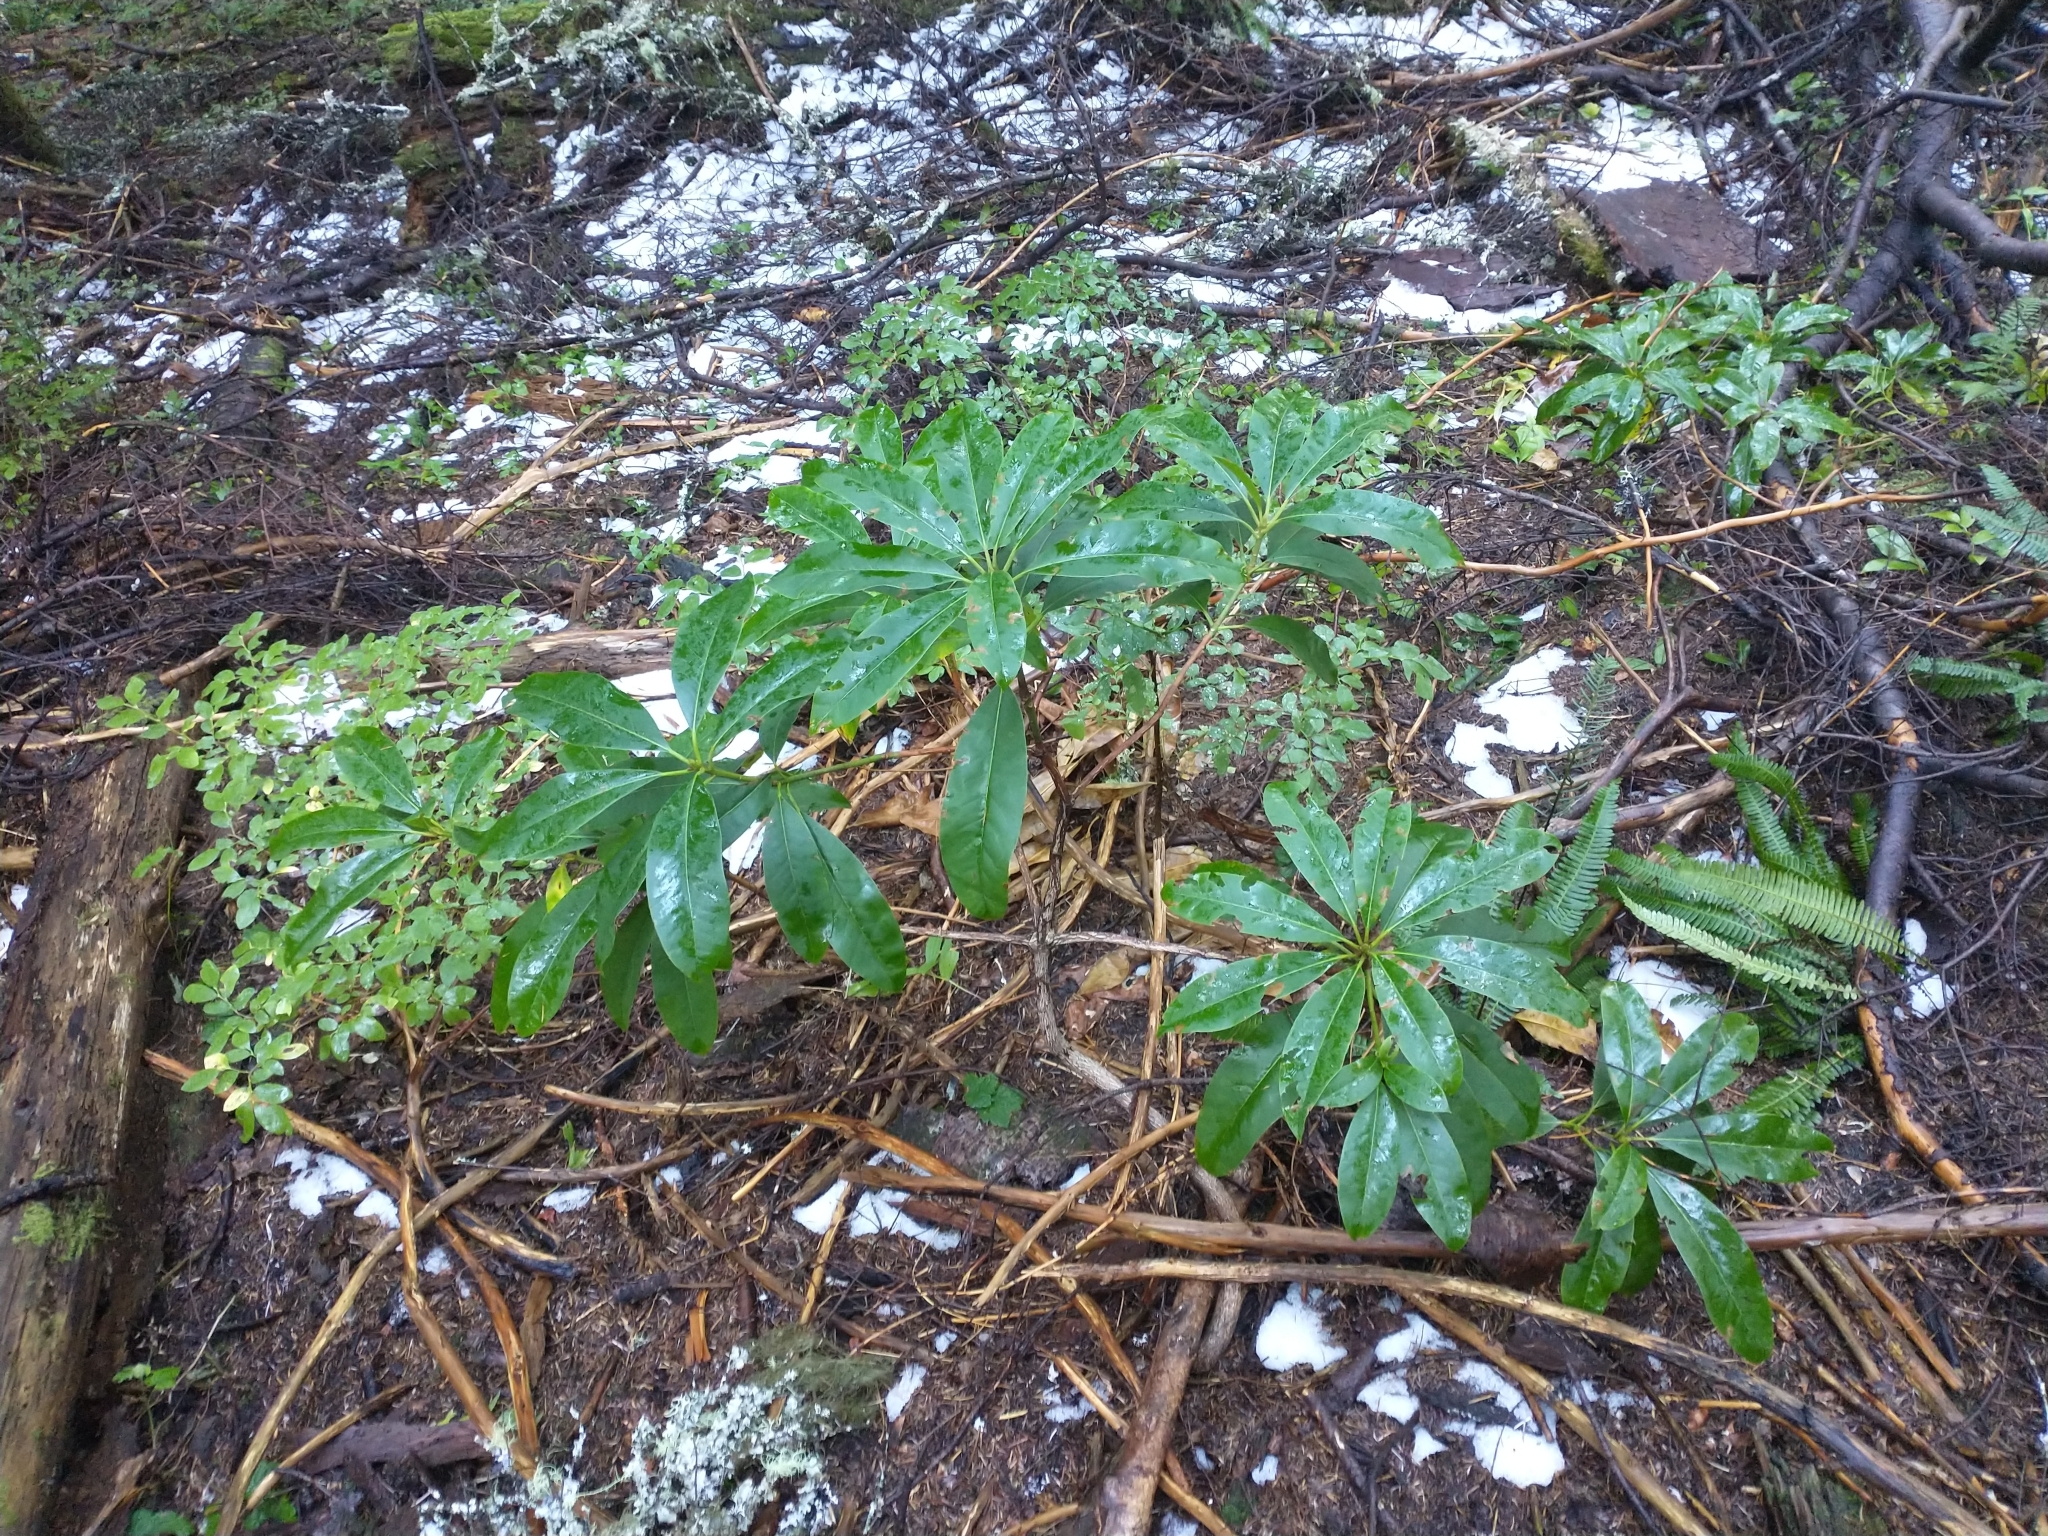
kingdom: Plantae
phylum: Tracheophyta
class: Magnoliopsida
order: Ericales
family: Ericaceae
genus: Rhododendron
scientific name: Rhododendron macrophyllum
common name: California rose bay
